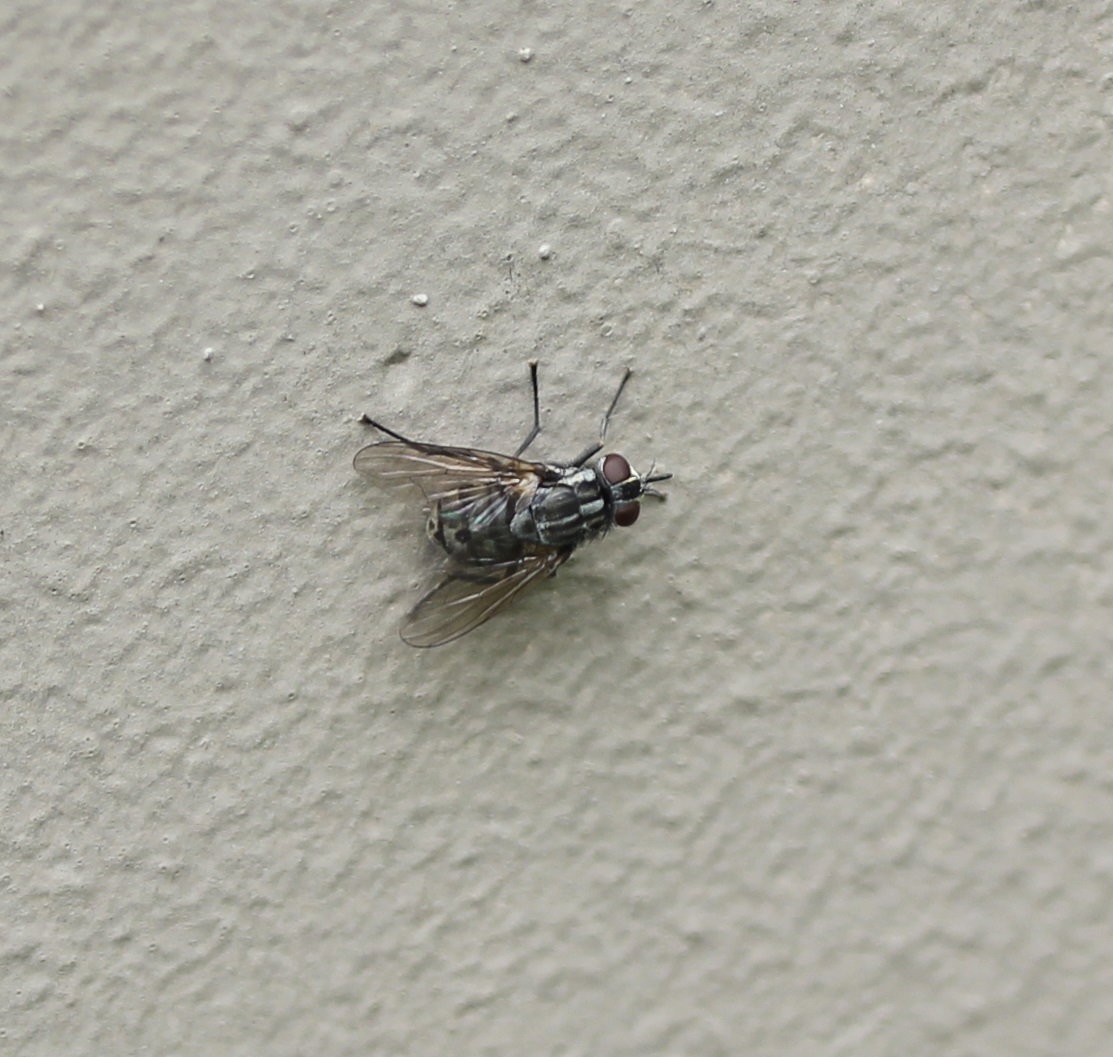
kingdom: Animalia
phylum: Arthropoda
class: Insecta
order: Diptera
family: Muscidae
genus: Stomoxys
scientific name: Stomoxys calcitrans
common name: Stable fly
